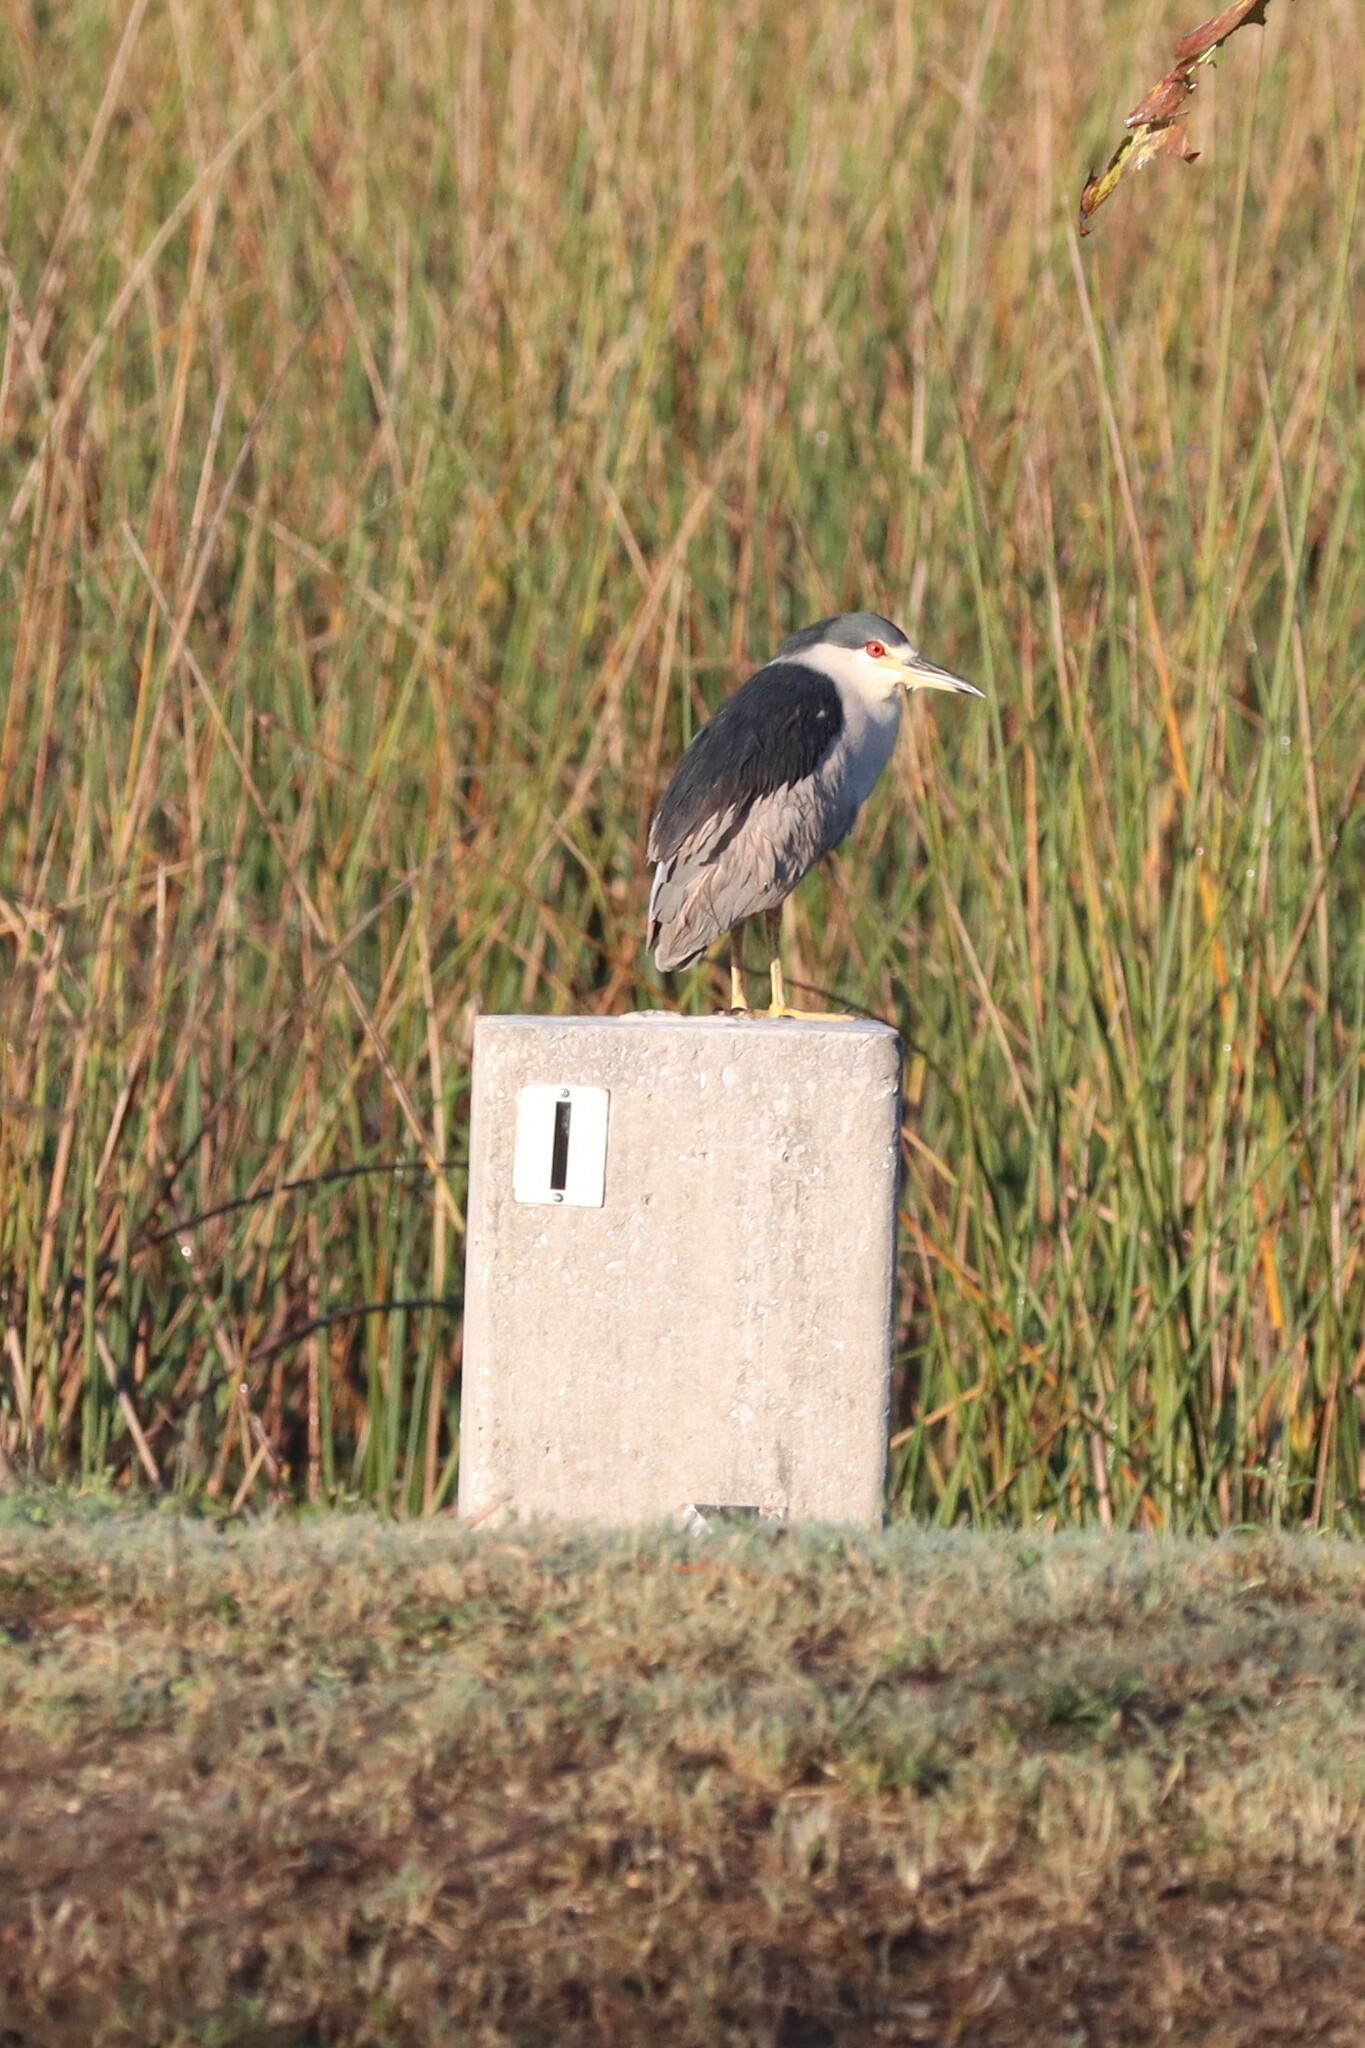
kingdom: Animalia
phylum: Chordata
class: Aves
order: Pelecaniformes
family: Ardeidae
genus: Nycticorax
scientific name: Nycticorax nycticorax
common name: Black-crowned night heron
